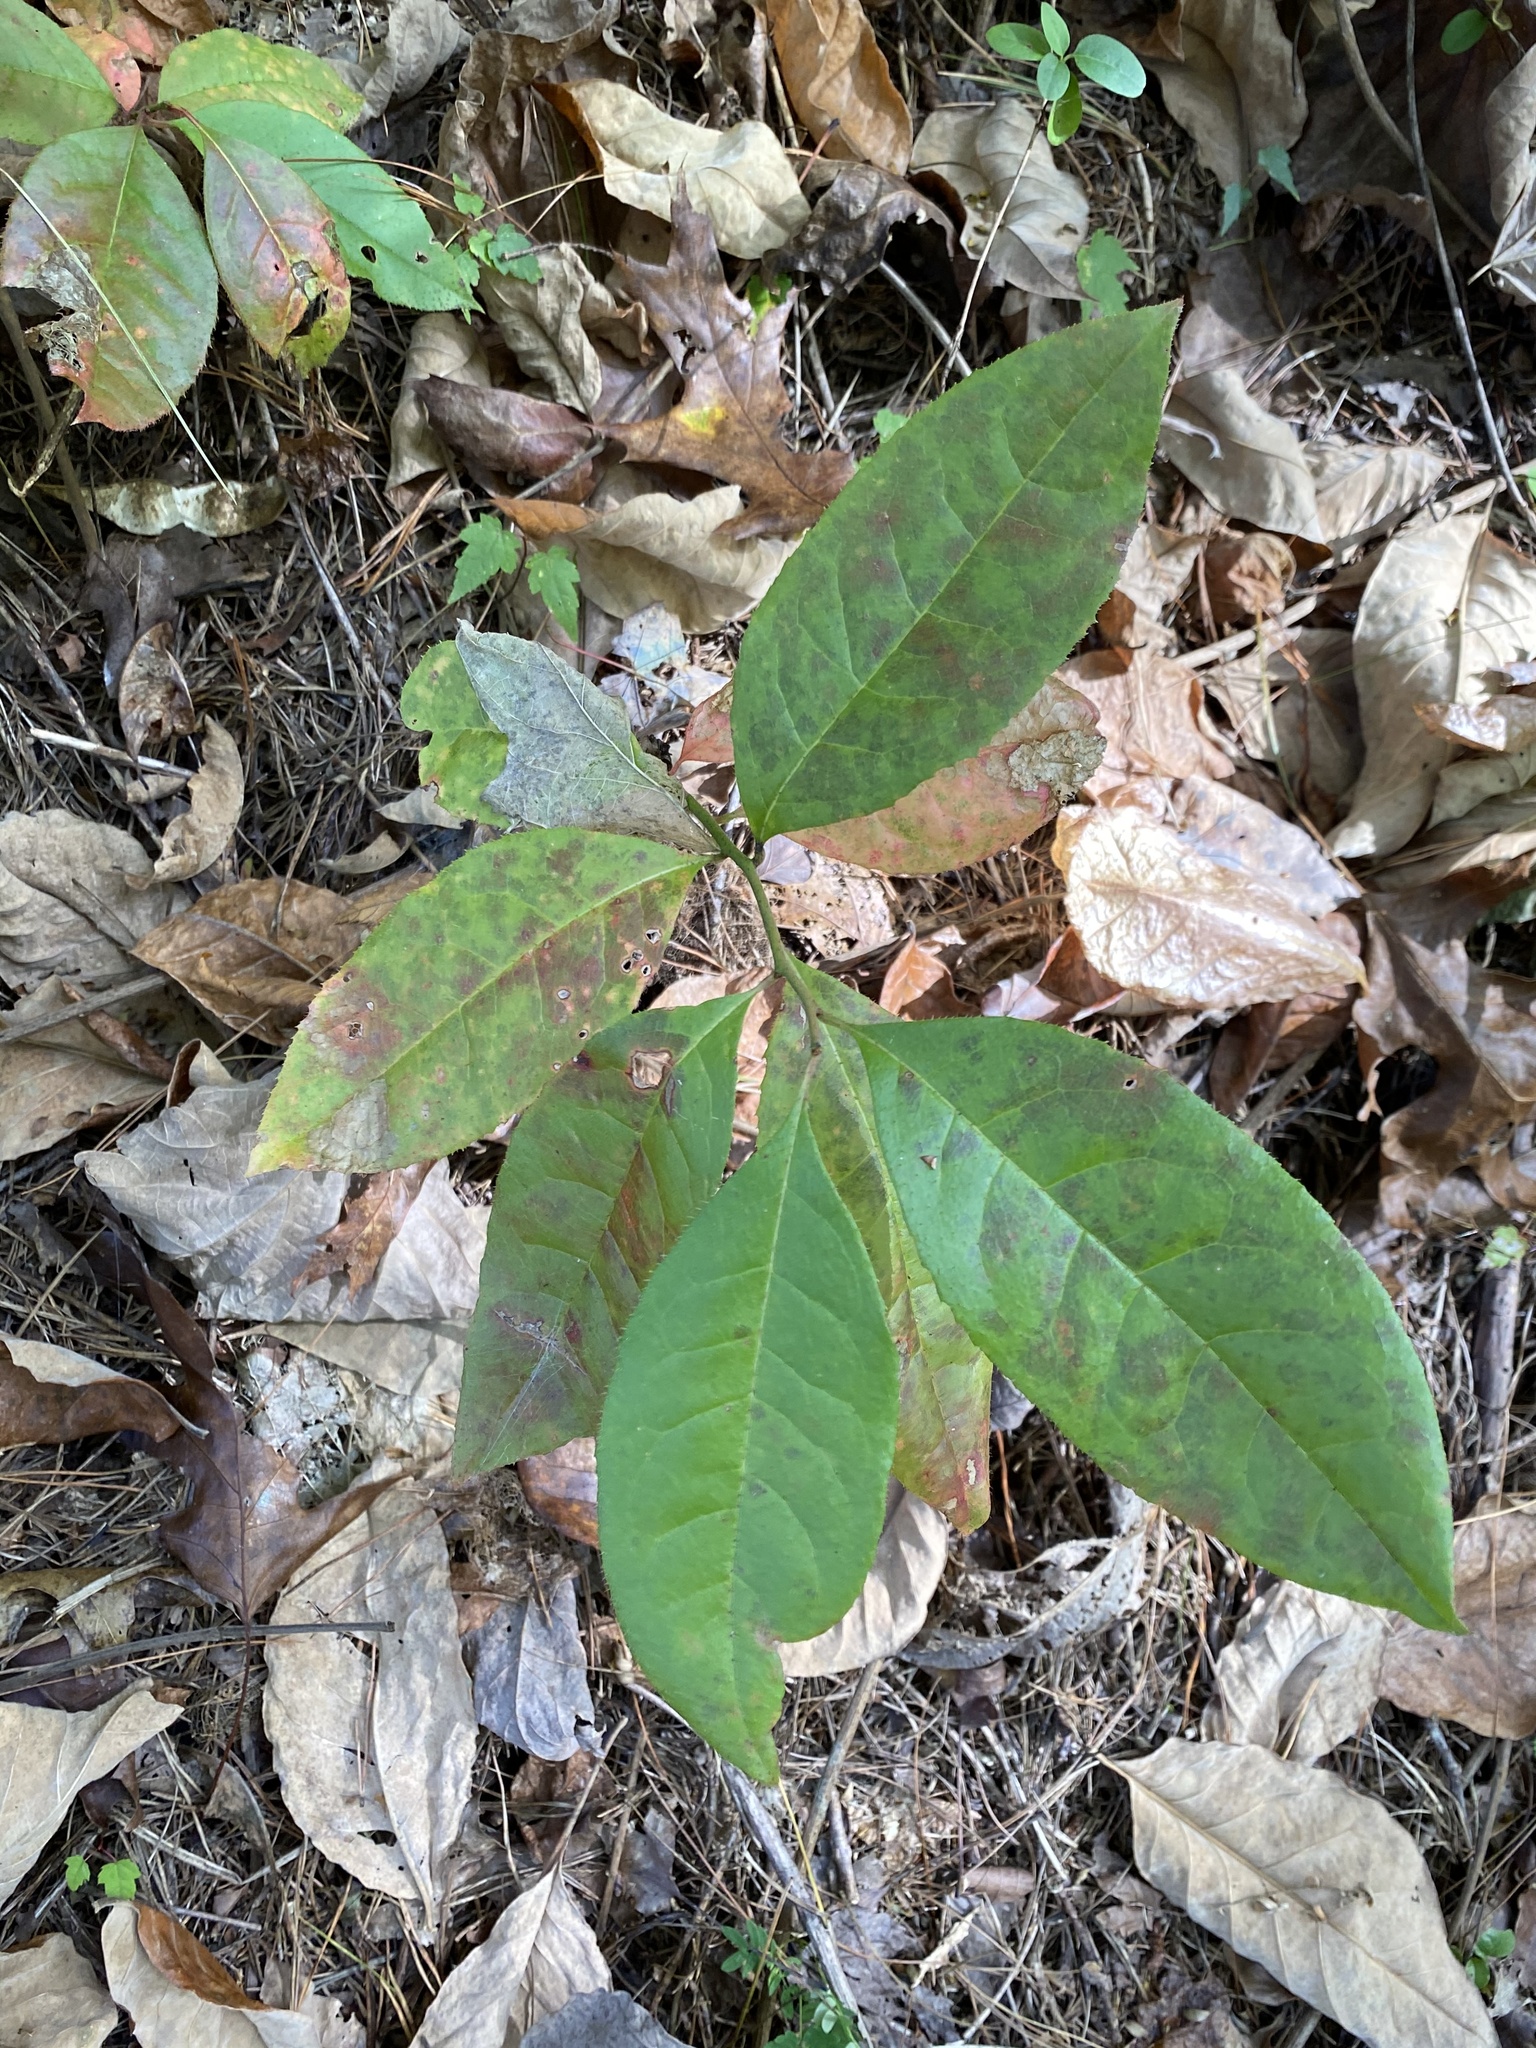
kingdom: Plantae
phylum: Tracheophyta
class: Magnoliopsida
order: Ericales
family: Ericaceae
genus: Oxydendrum
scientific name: Oxydendrum arboreum
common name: Sourwood
